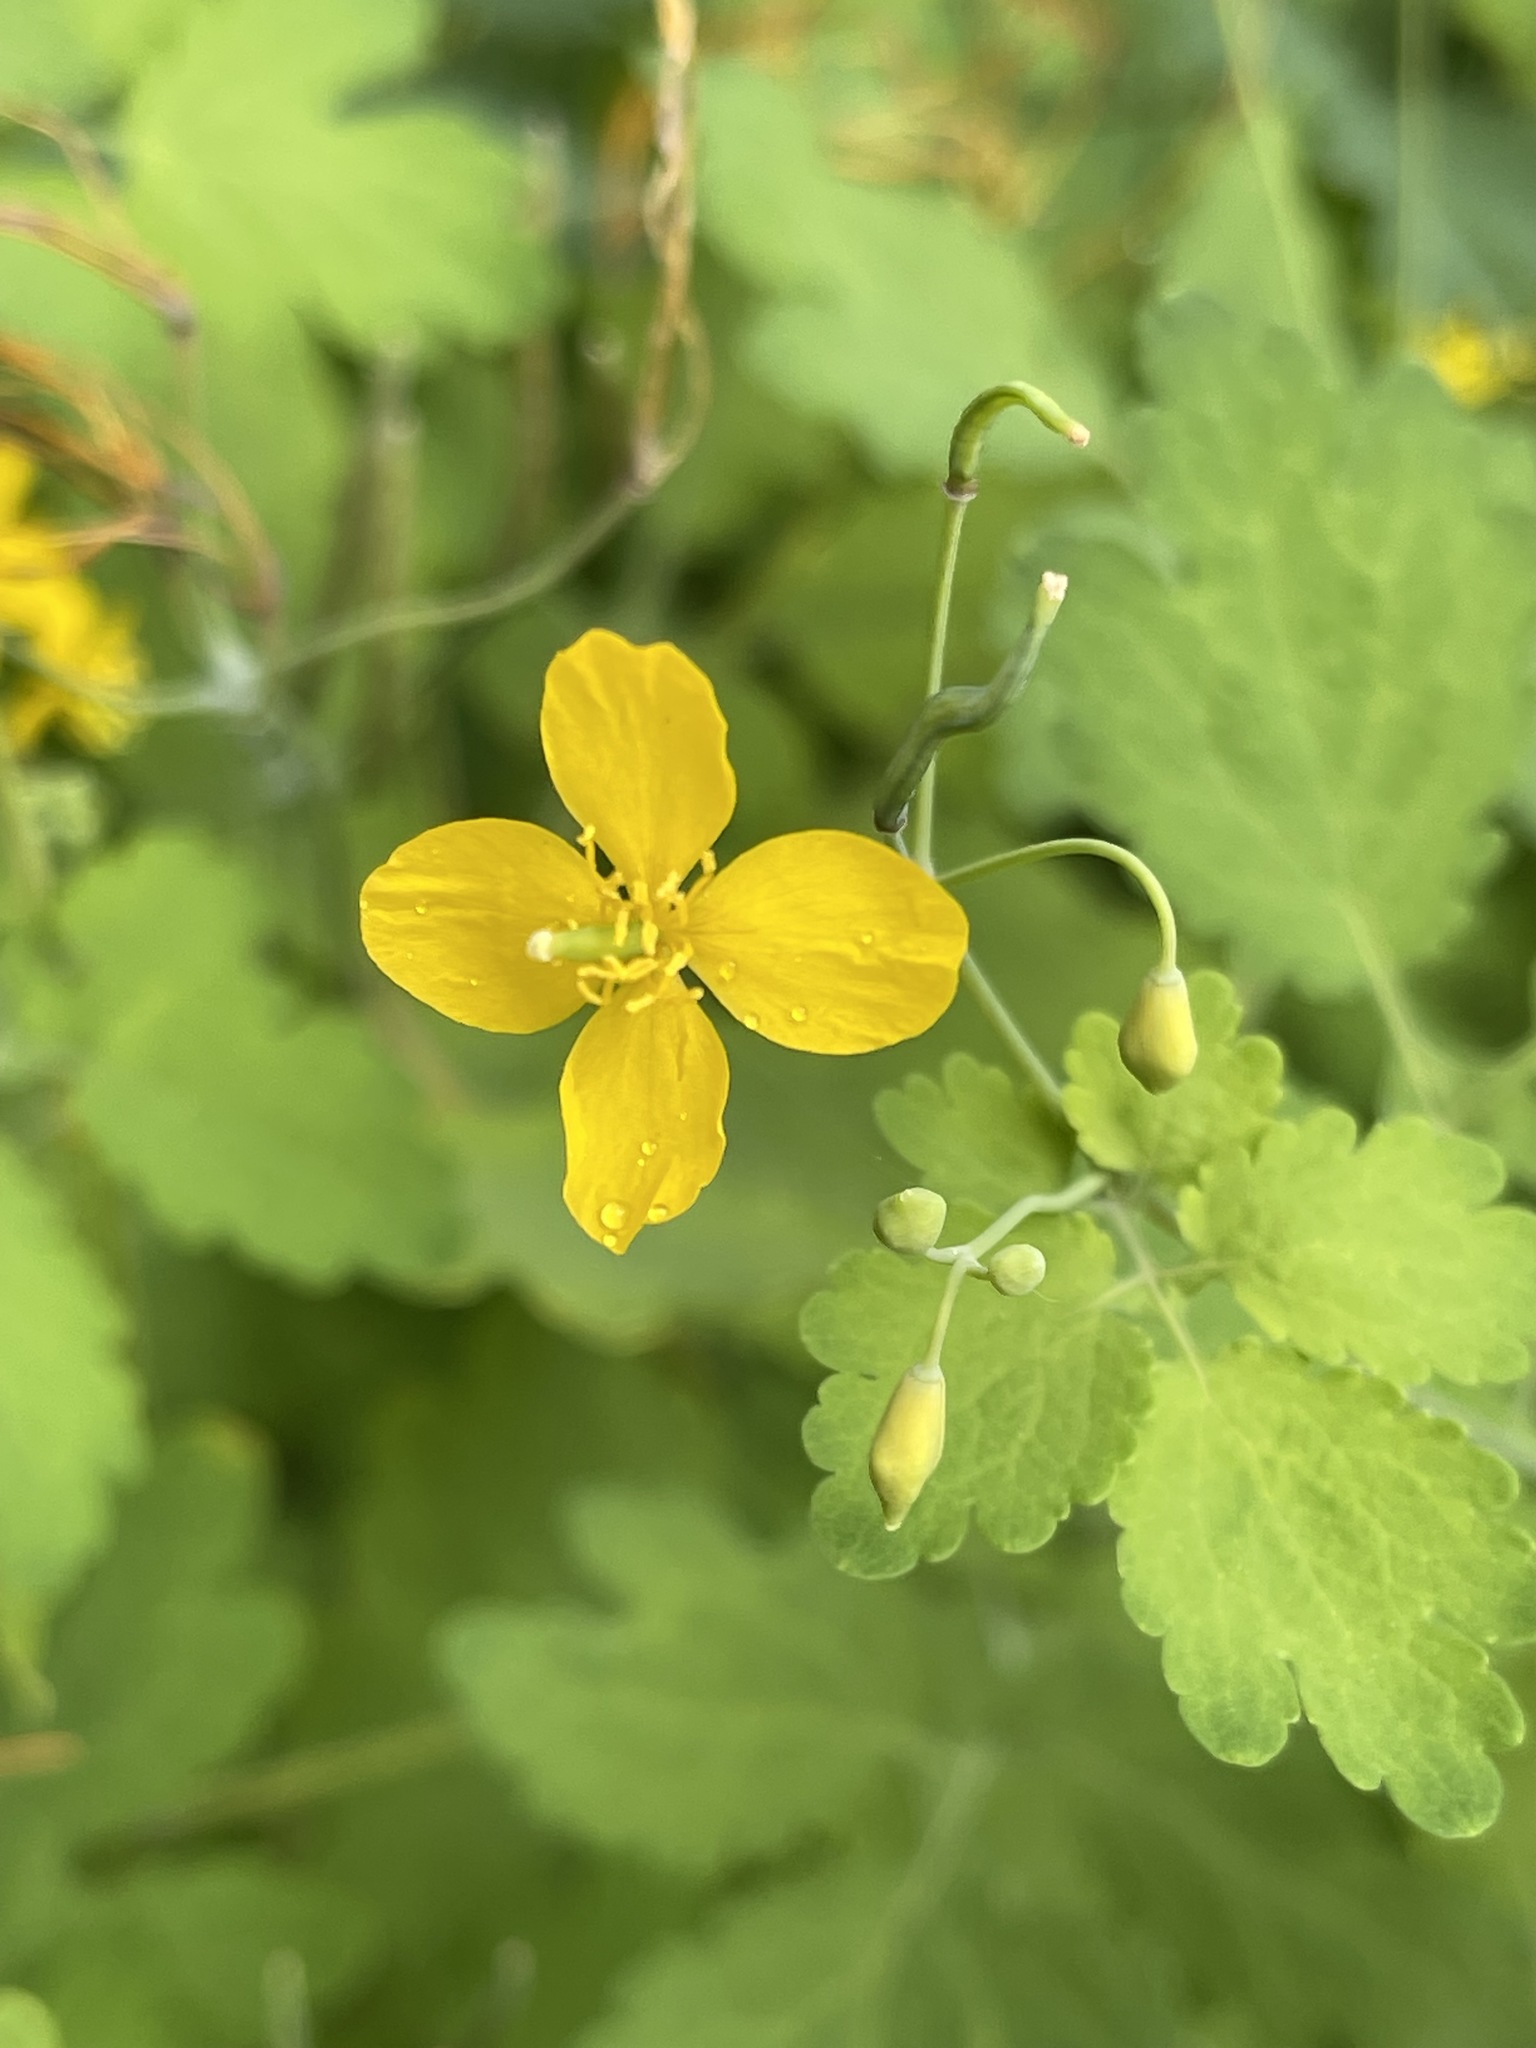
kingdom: Plantae
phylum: Tracheophyta
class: Magnoliopsida
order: Ranunculales
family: Papaveraceae
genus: Chelidonium
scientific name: Chelidonium majus
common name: Greater celandine
